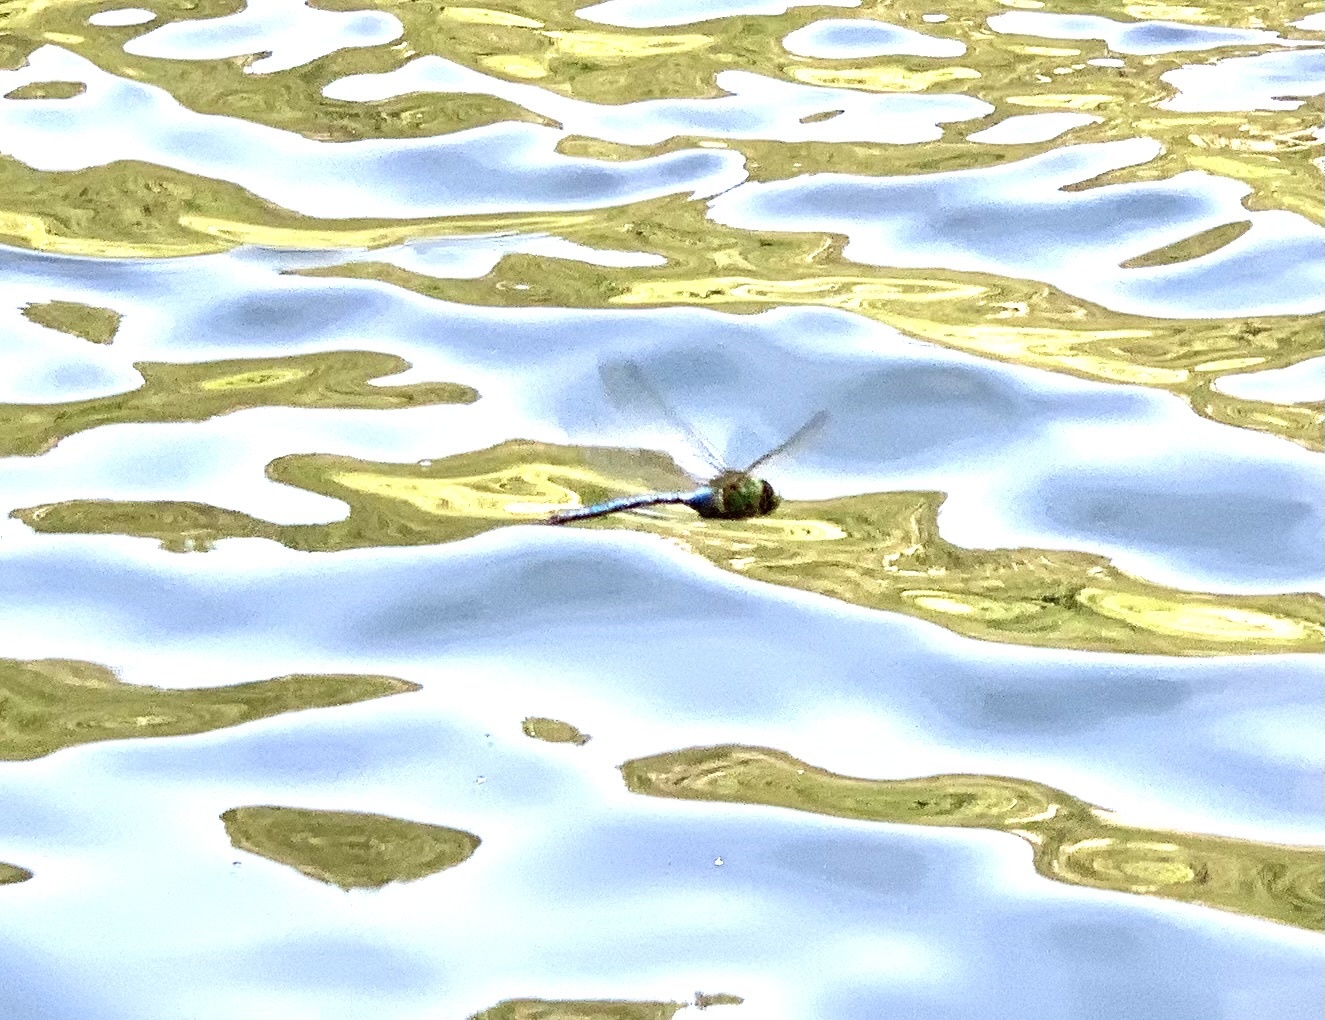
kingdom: Animalia
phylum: Arthropoda
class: Insecta
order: Odonata
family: Aeshnidae
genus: Anax
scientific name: Anax imperator
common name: Emperor dragonfly
